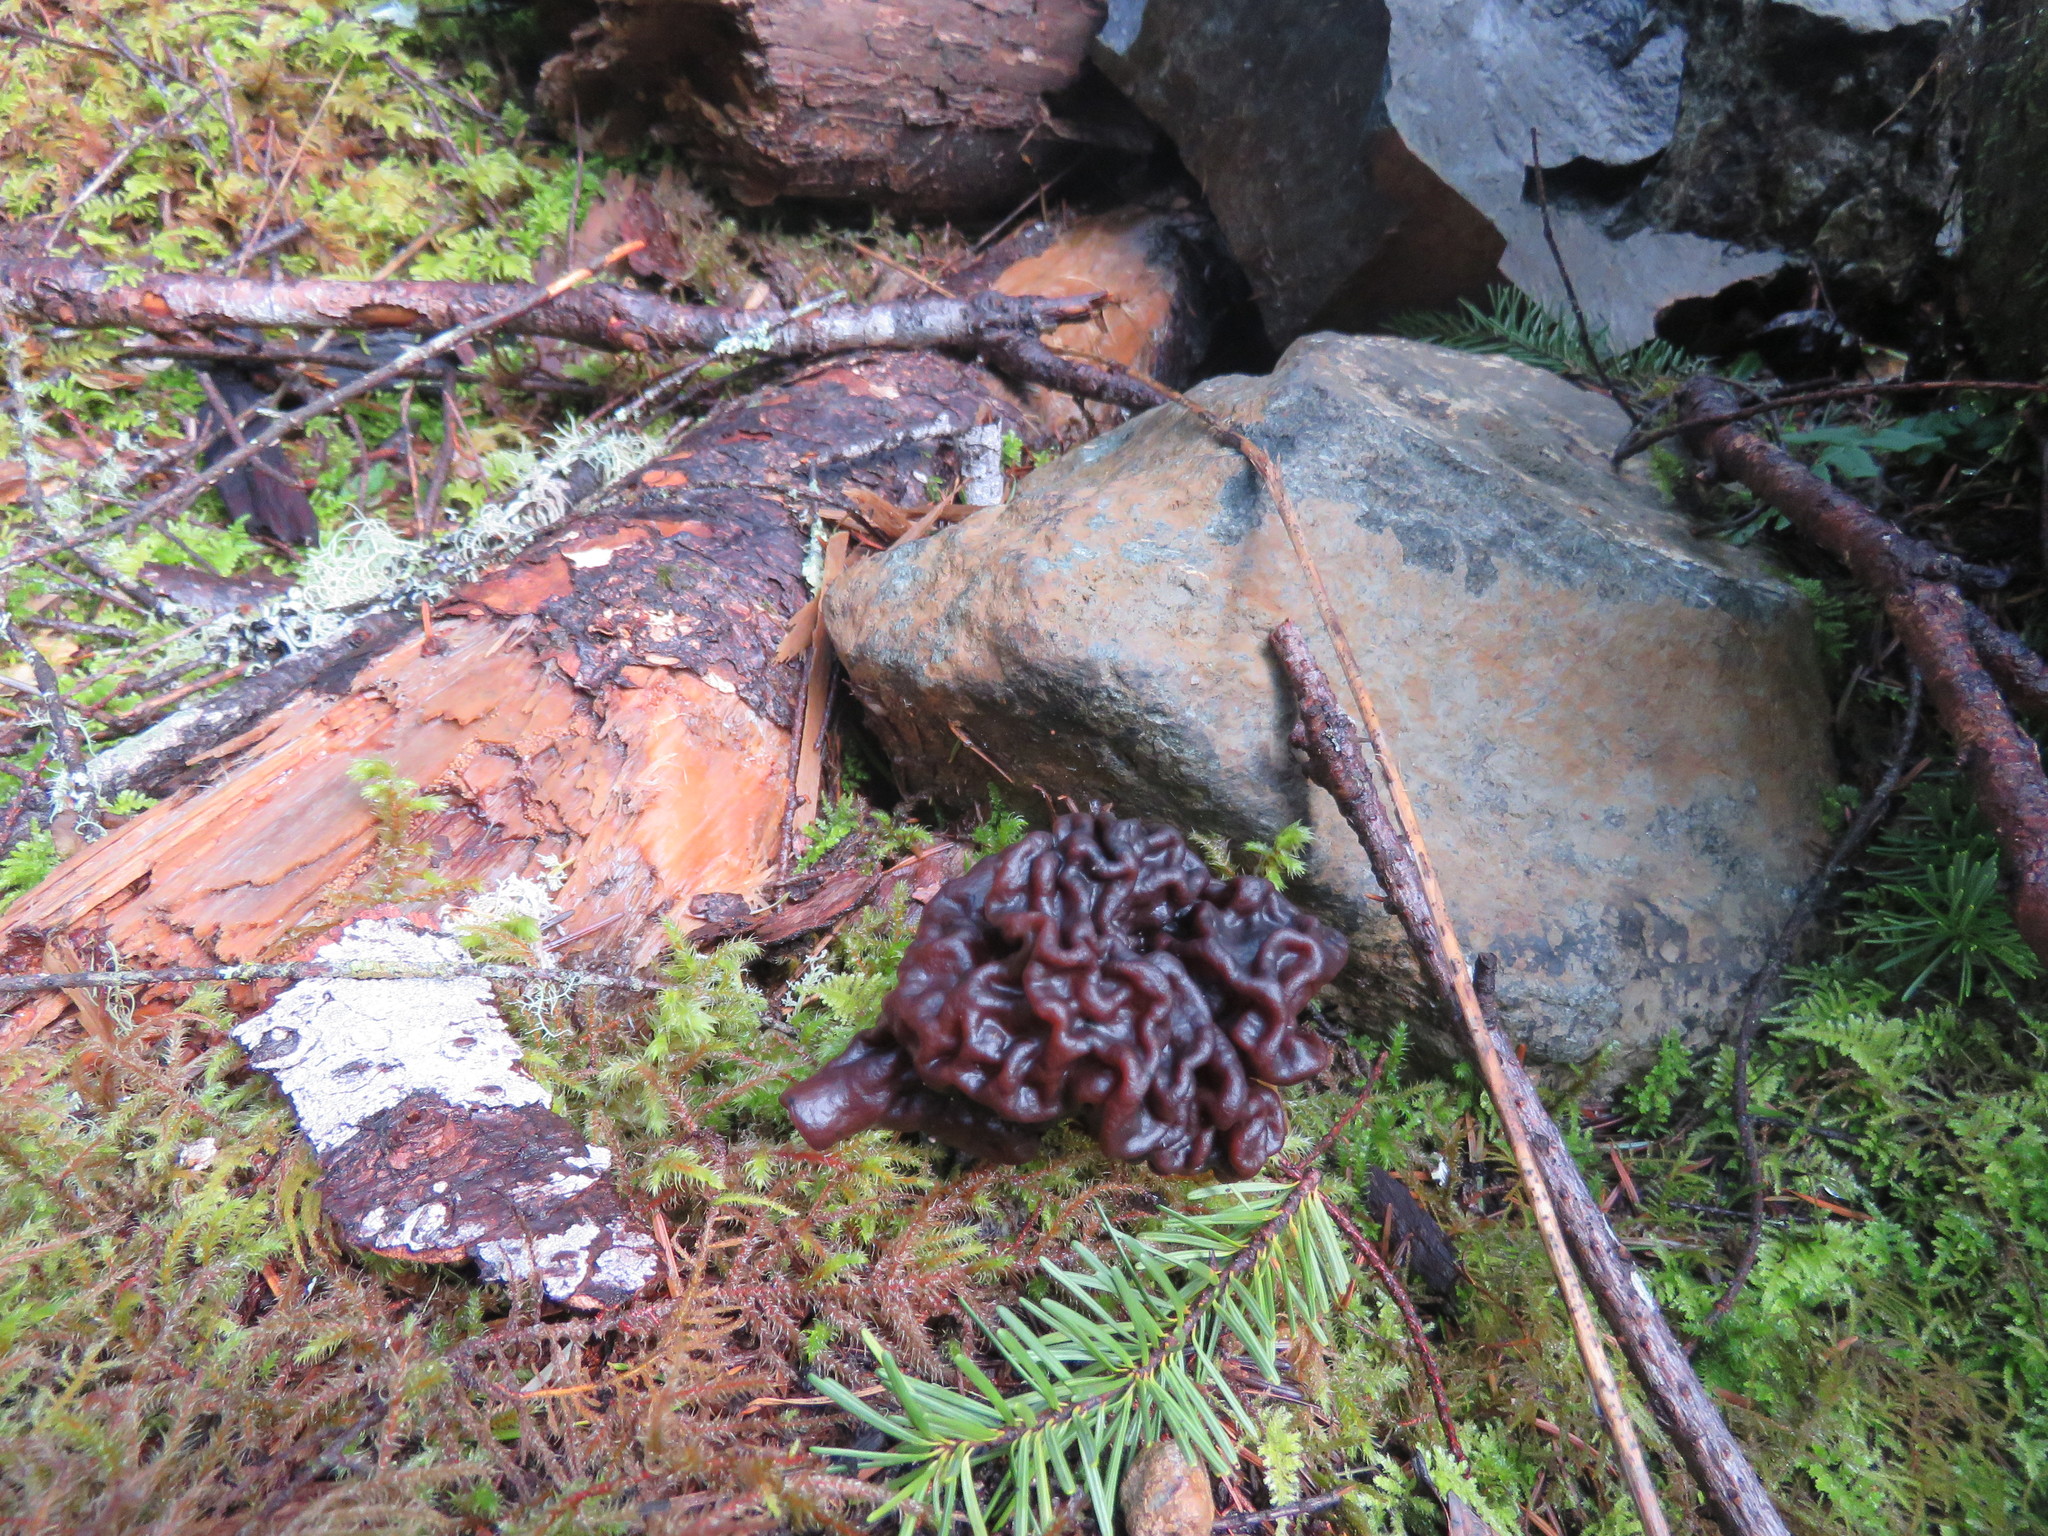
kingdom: Fungi
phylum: Ascomycota
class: Pezizomycetes
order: Pezizales
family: Discinaceae
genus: Gyromitra
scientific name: Gyromitra esculenta
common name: False morel
